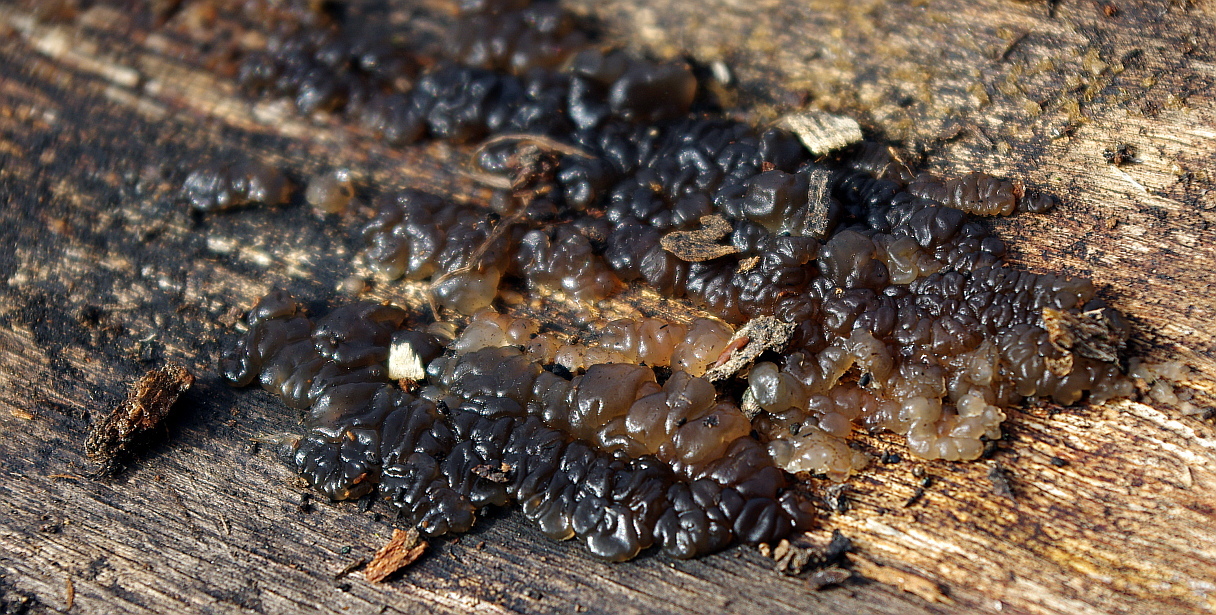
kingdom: Fungi
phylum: Basidiomycota
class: Agaricomycetes
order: Auriculariales
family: Auriculariaceae
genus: Exidia
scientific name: Exidia
